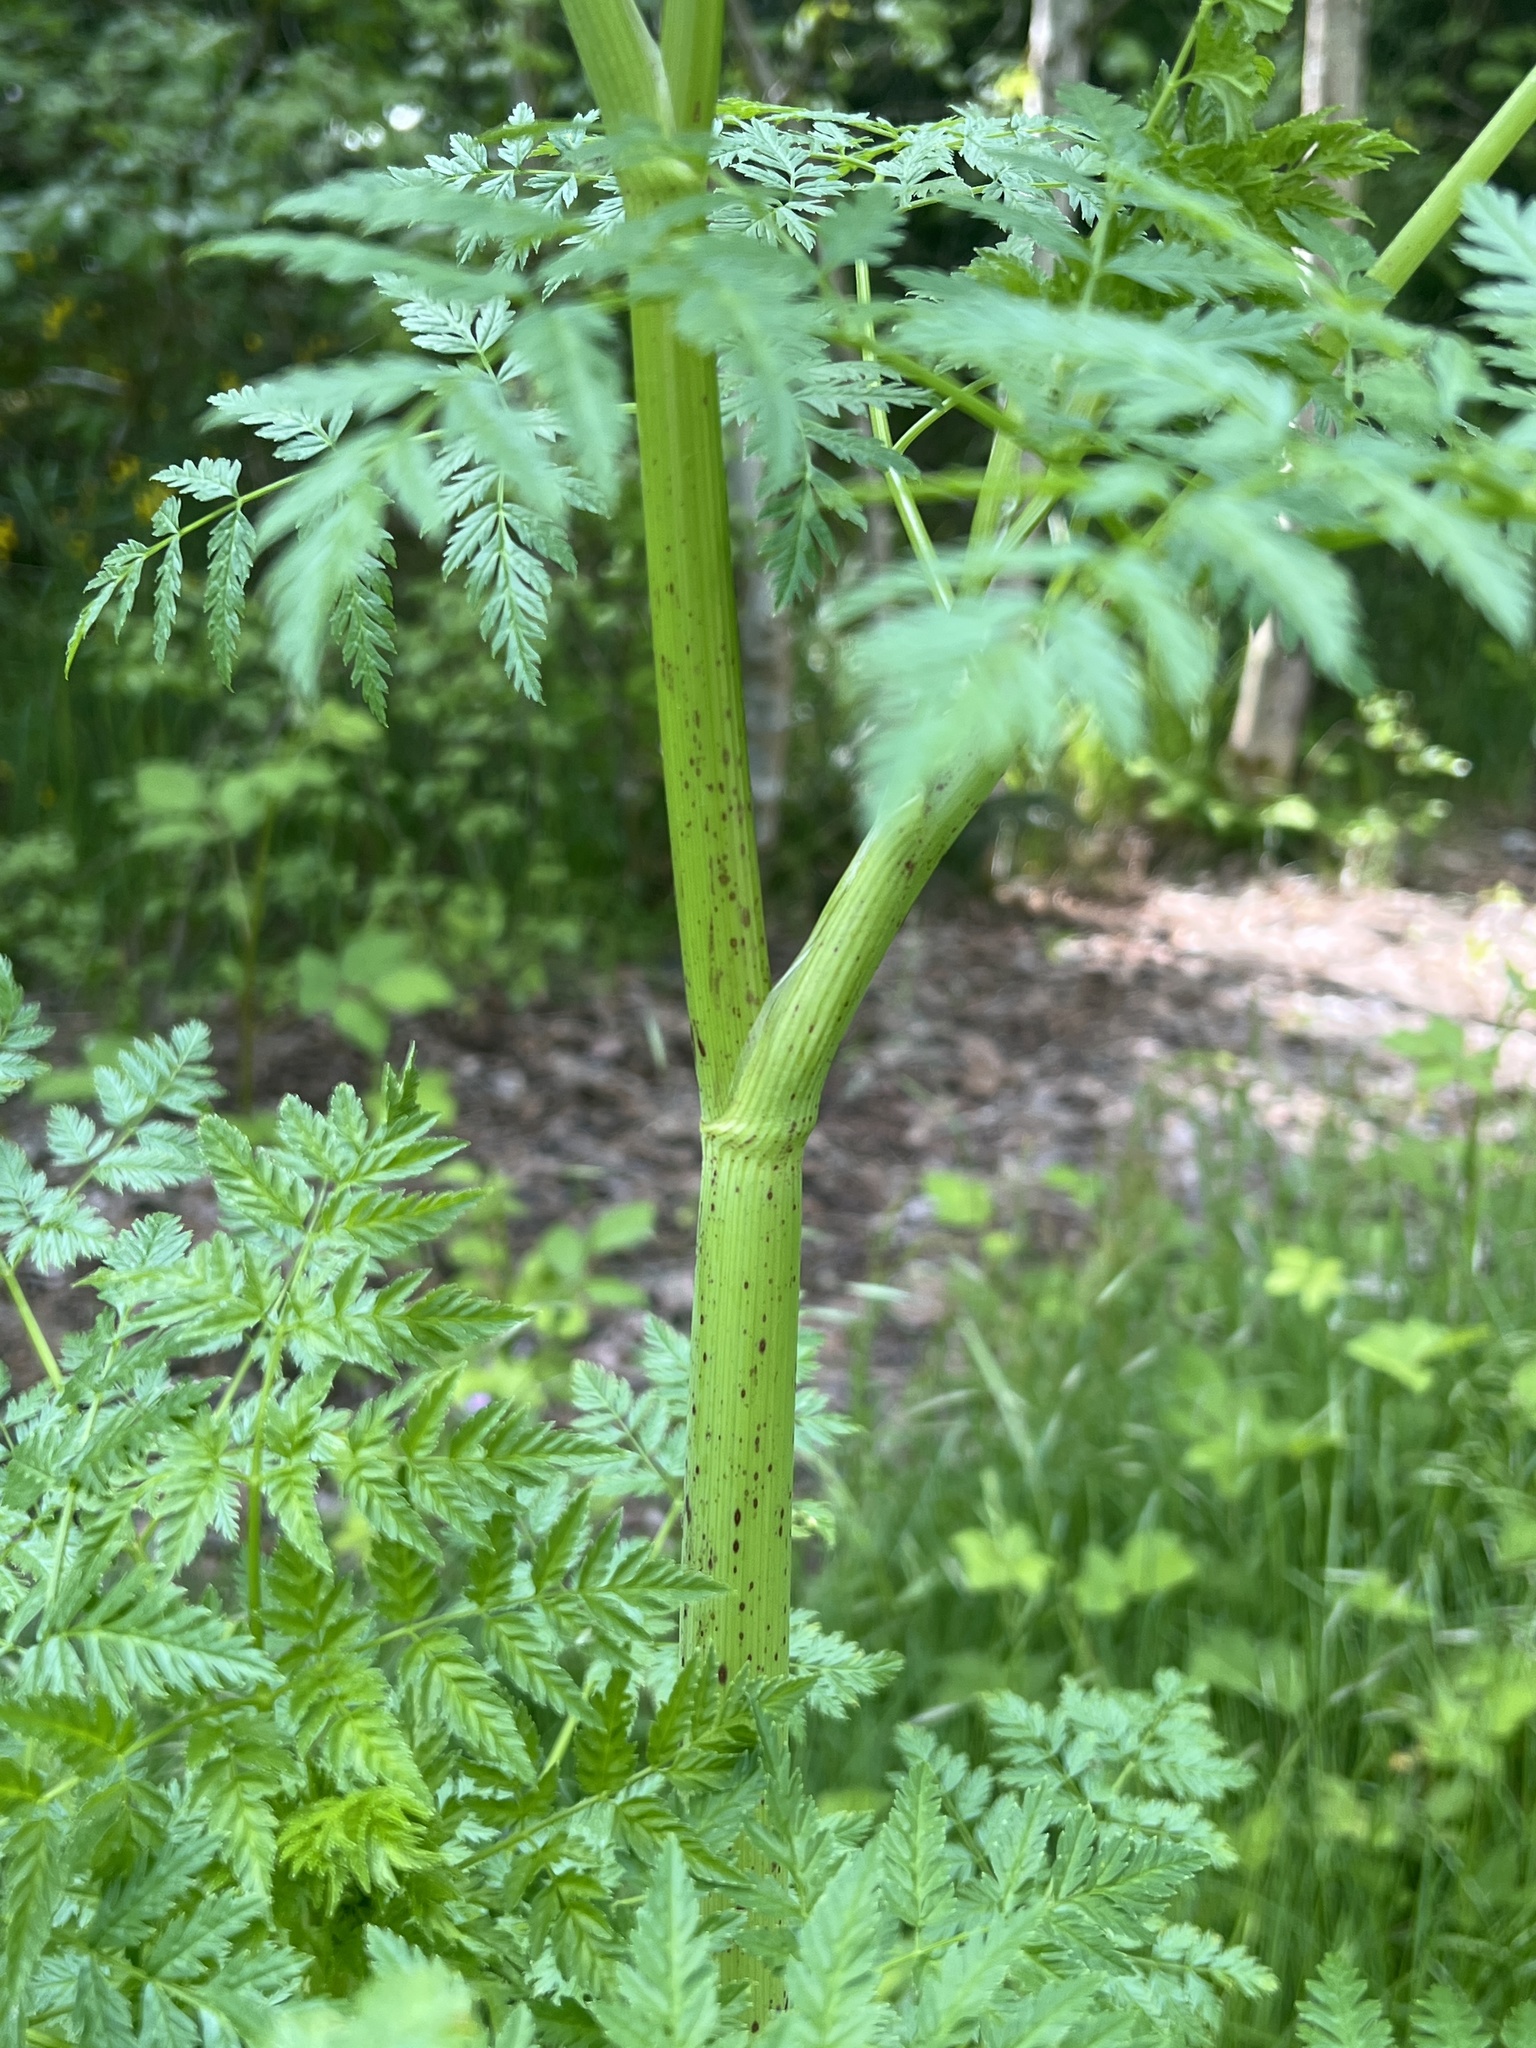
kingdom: Plantae
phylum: Tracheophyta
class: Magnoliopsida
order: Apiales
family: Apiaceae
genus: Conium
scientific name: Conium maculatum
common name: Hemlock
